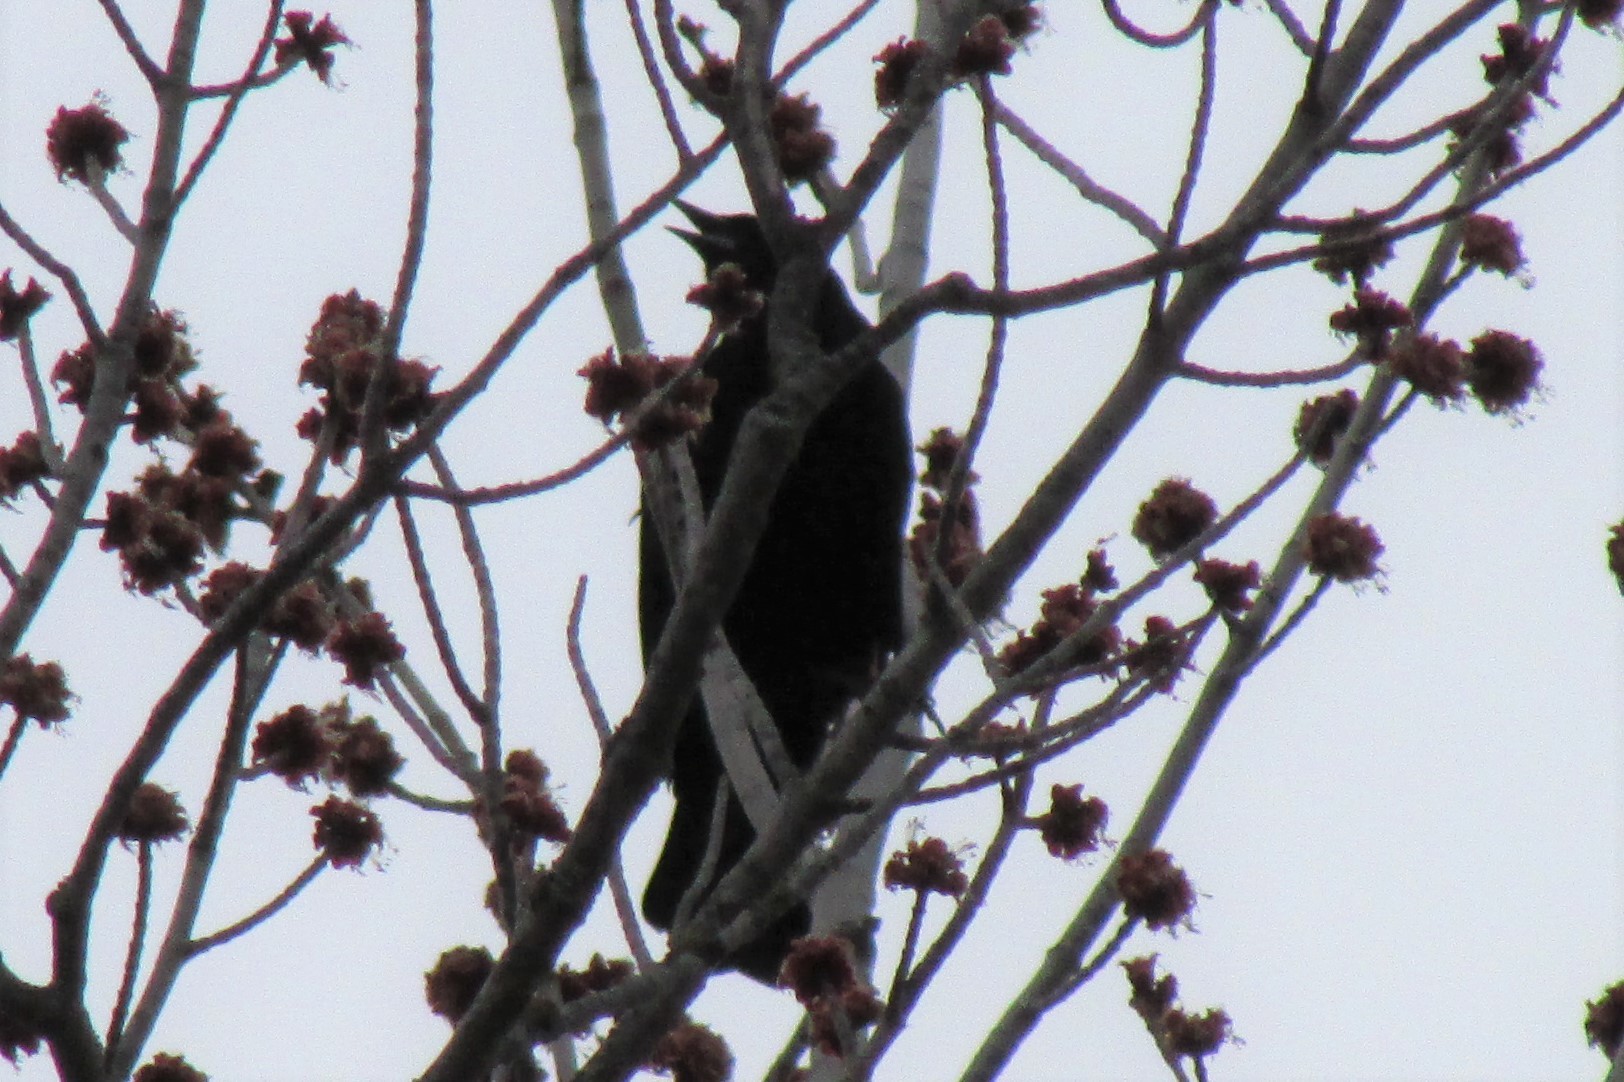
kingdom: Animalia
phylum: Chordata
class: Aves
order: Passeriformes
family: Icteridae
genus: Agelaius
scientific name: Agelaius phoeniceus
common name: Red-winged blackbird
